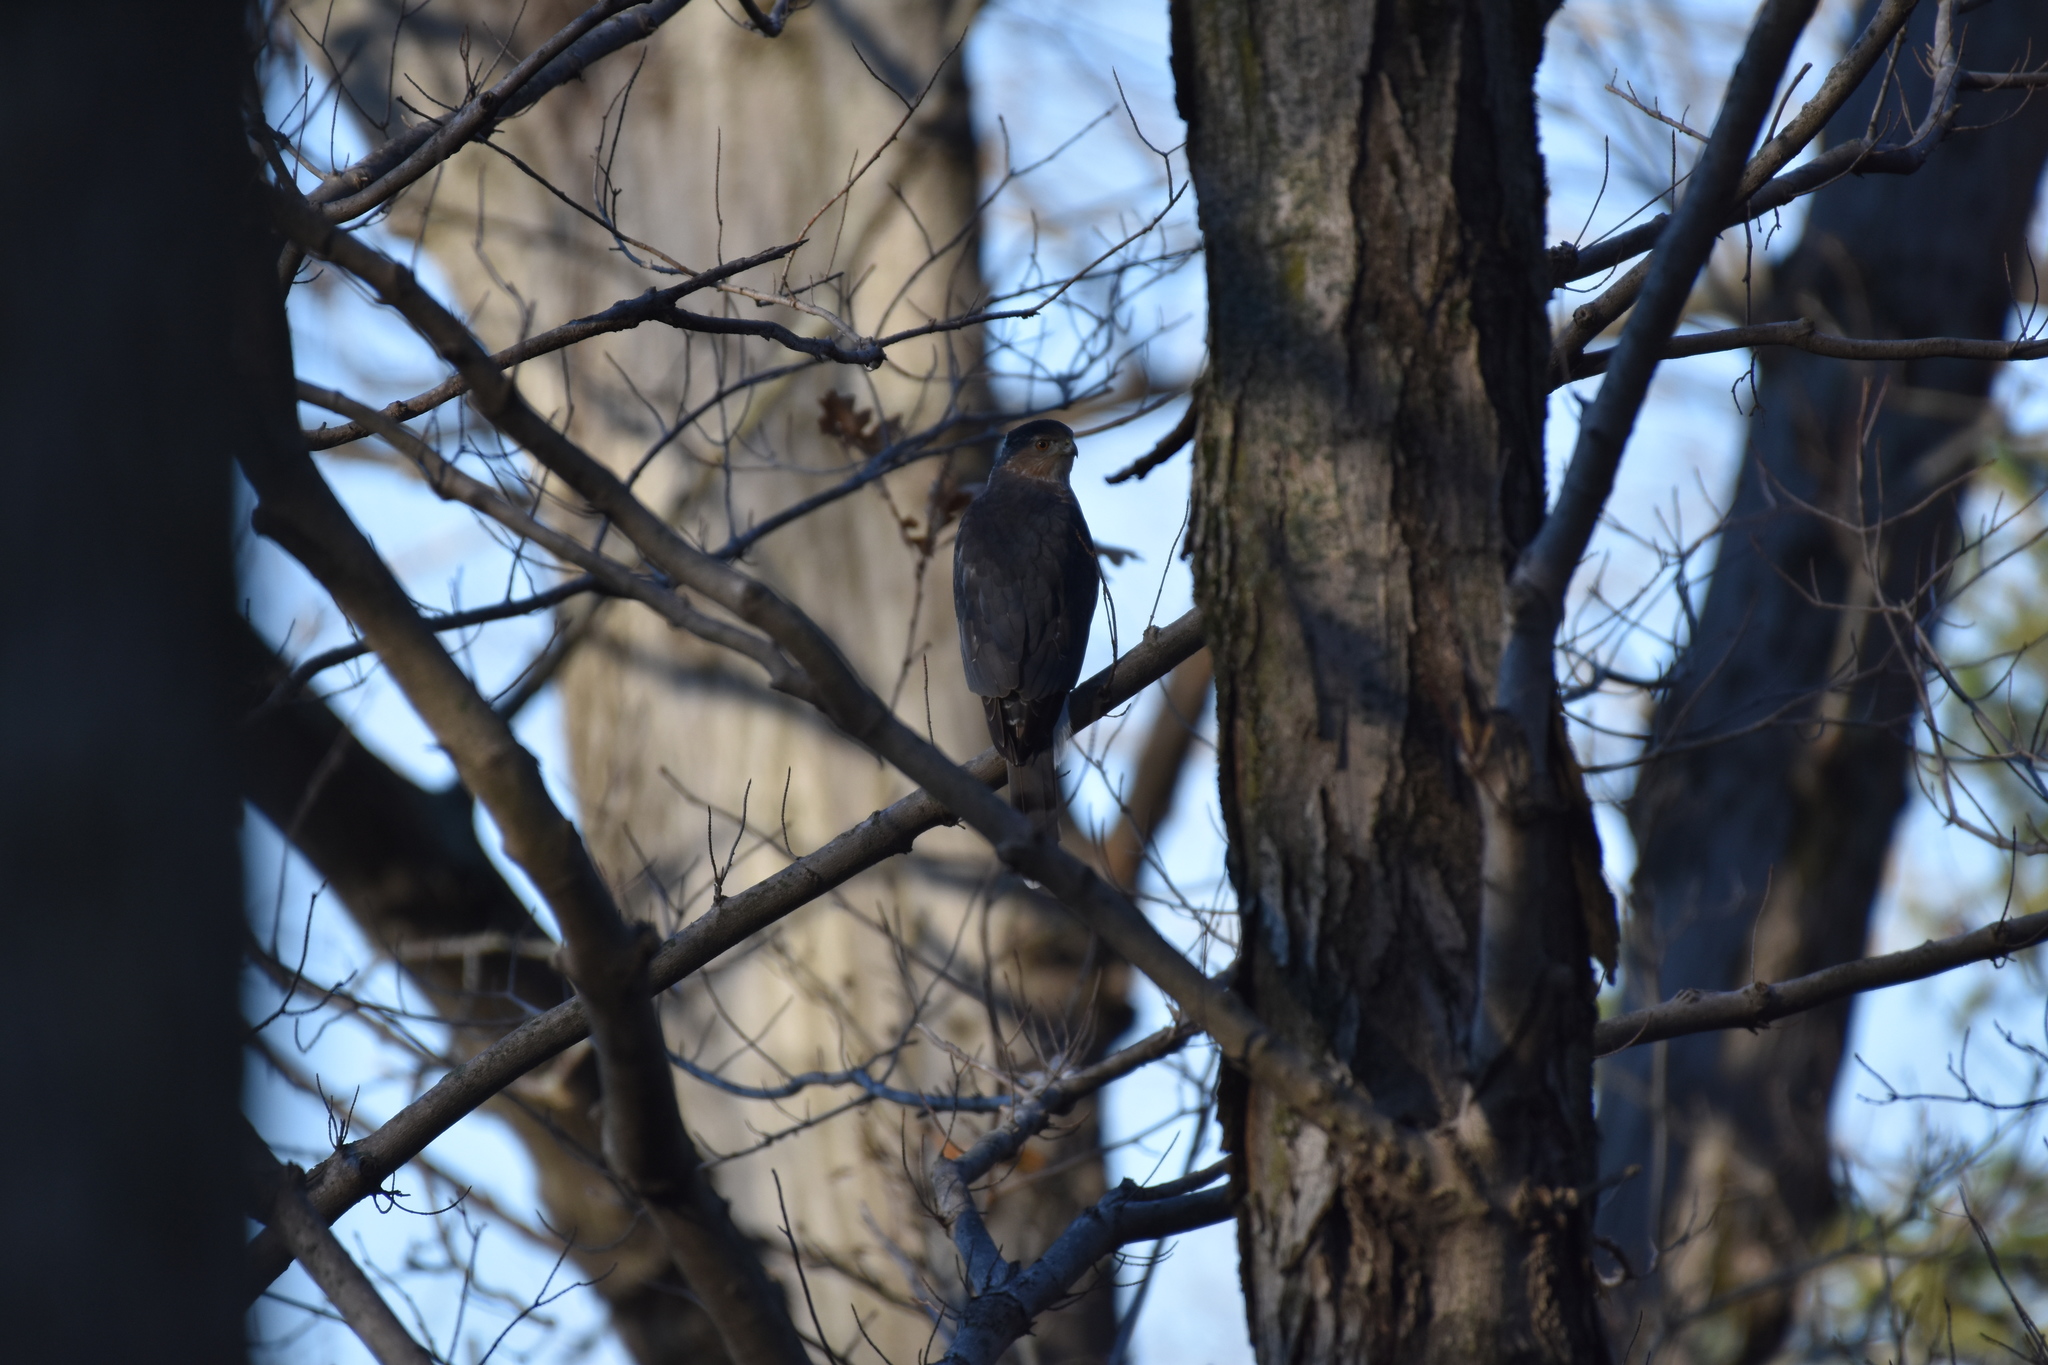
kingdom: Animalia
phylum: Chordata
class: Aves
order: Accipitriformes
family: Accipitridae
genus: Accipiter
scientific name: Accipiter cooperii
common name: Cooper's hawk
